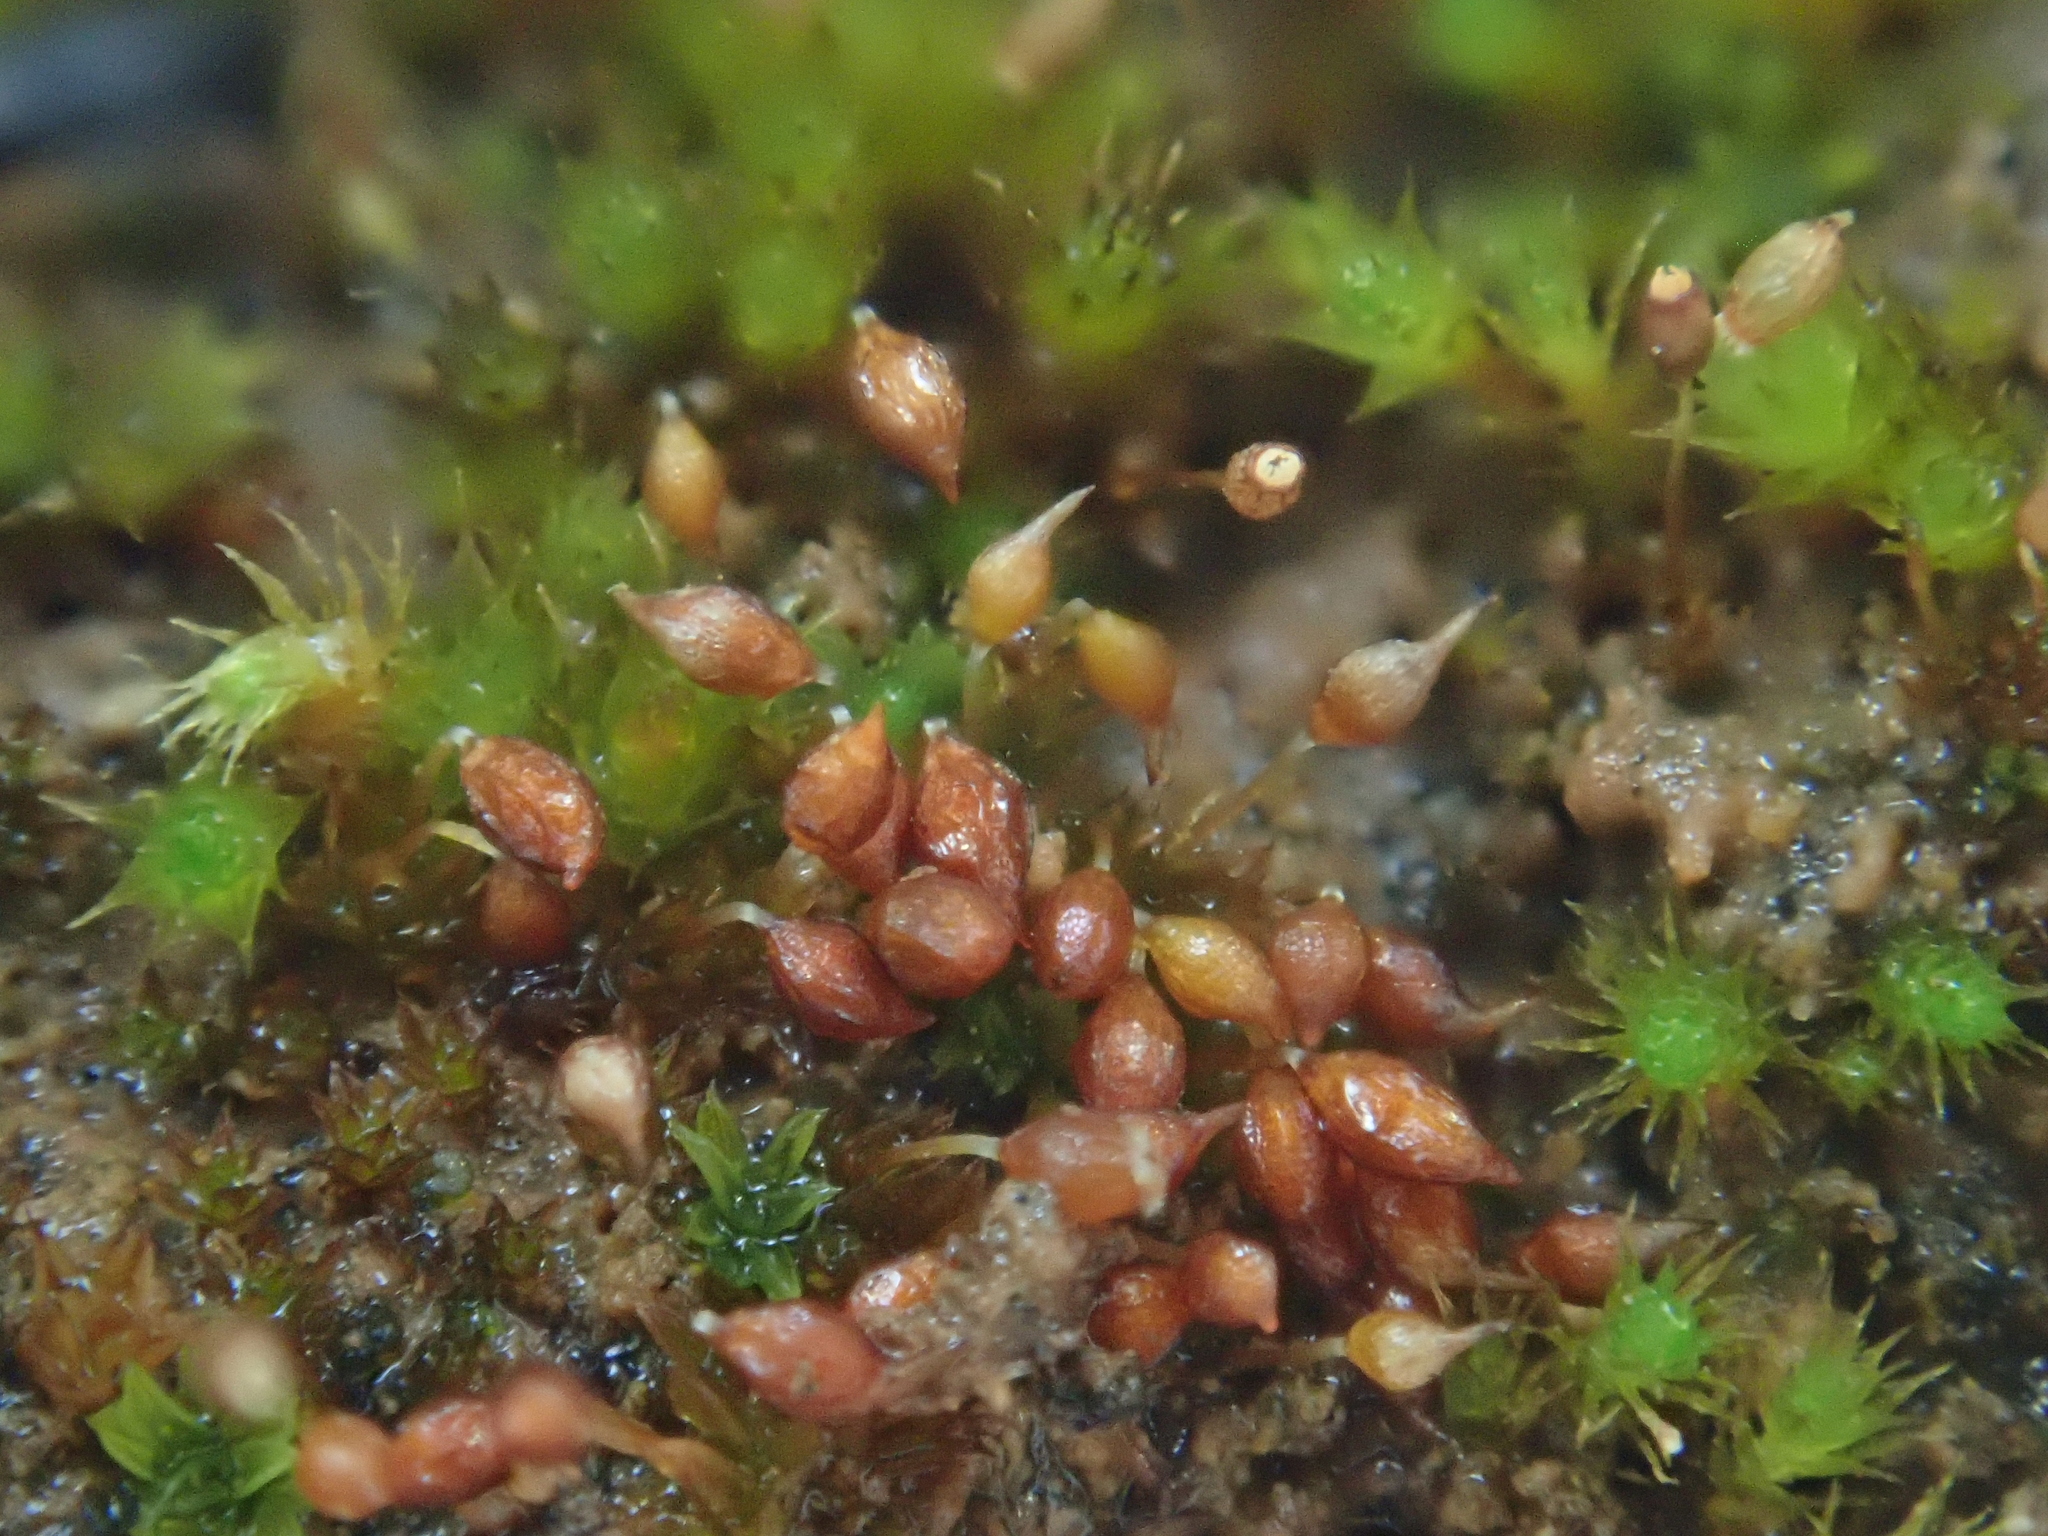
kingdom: Plantae
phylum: Bryophyta
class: Bryopsida
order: Pottiales
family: Pottiaceae
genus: Microbryum
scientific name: Microbryum rectum
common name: Upright pottia
